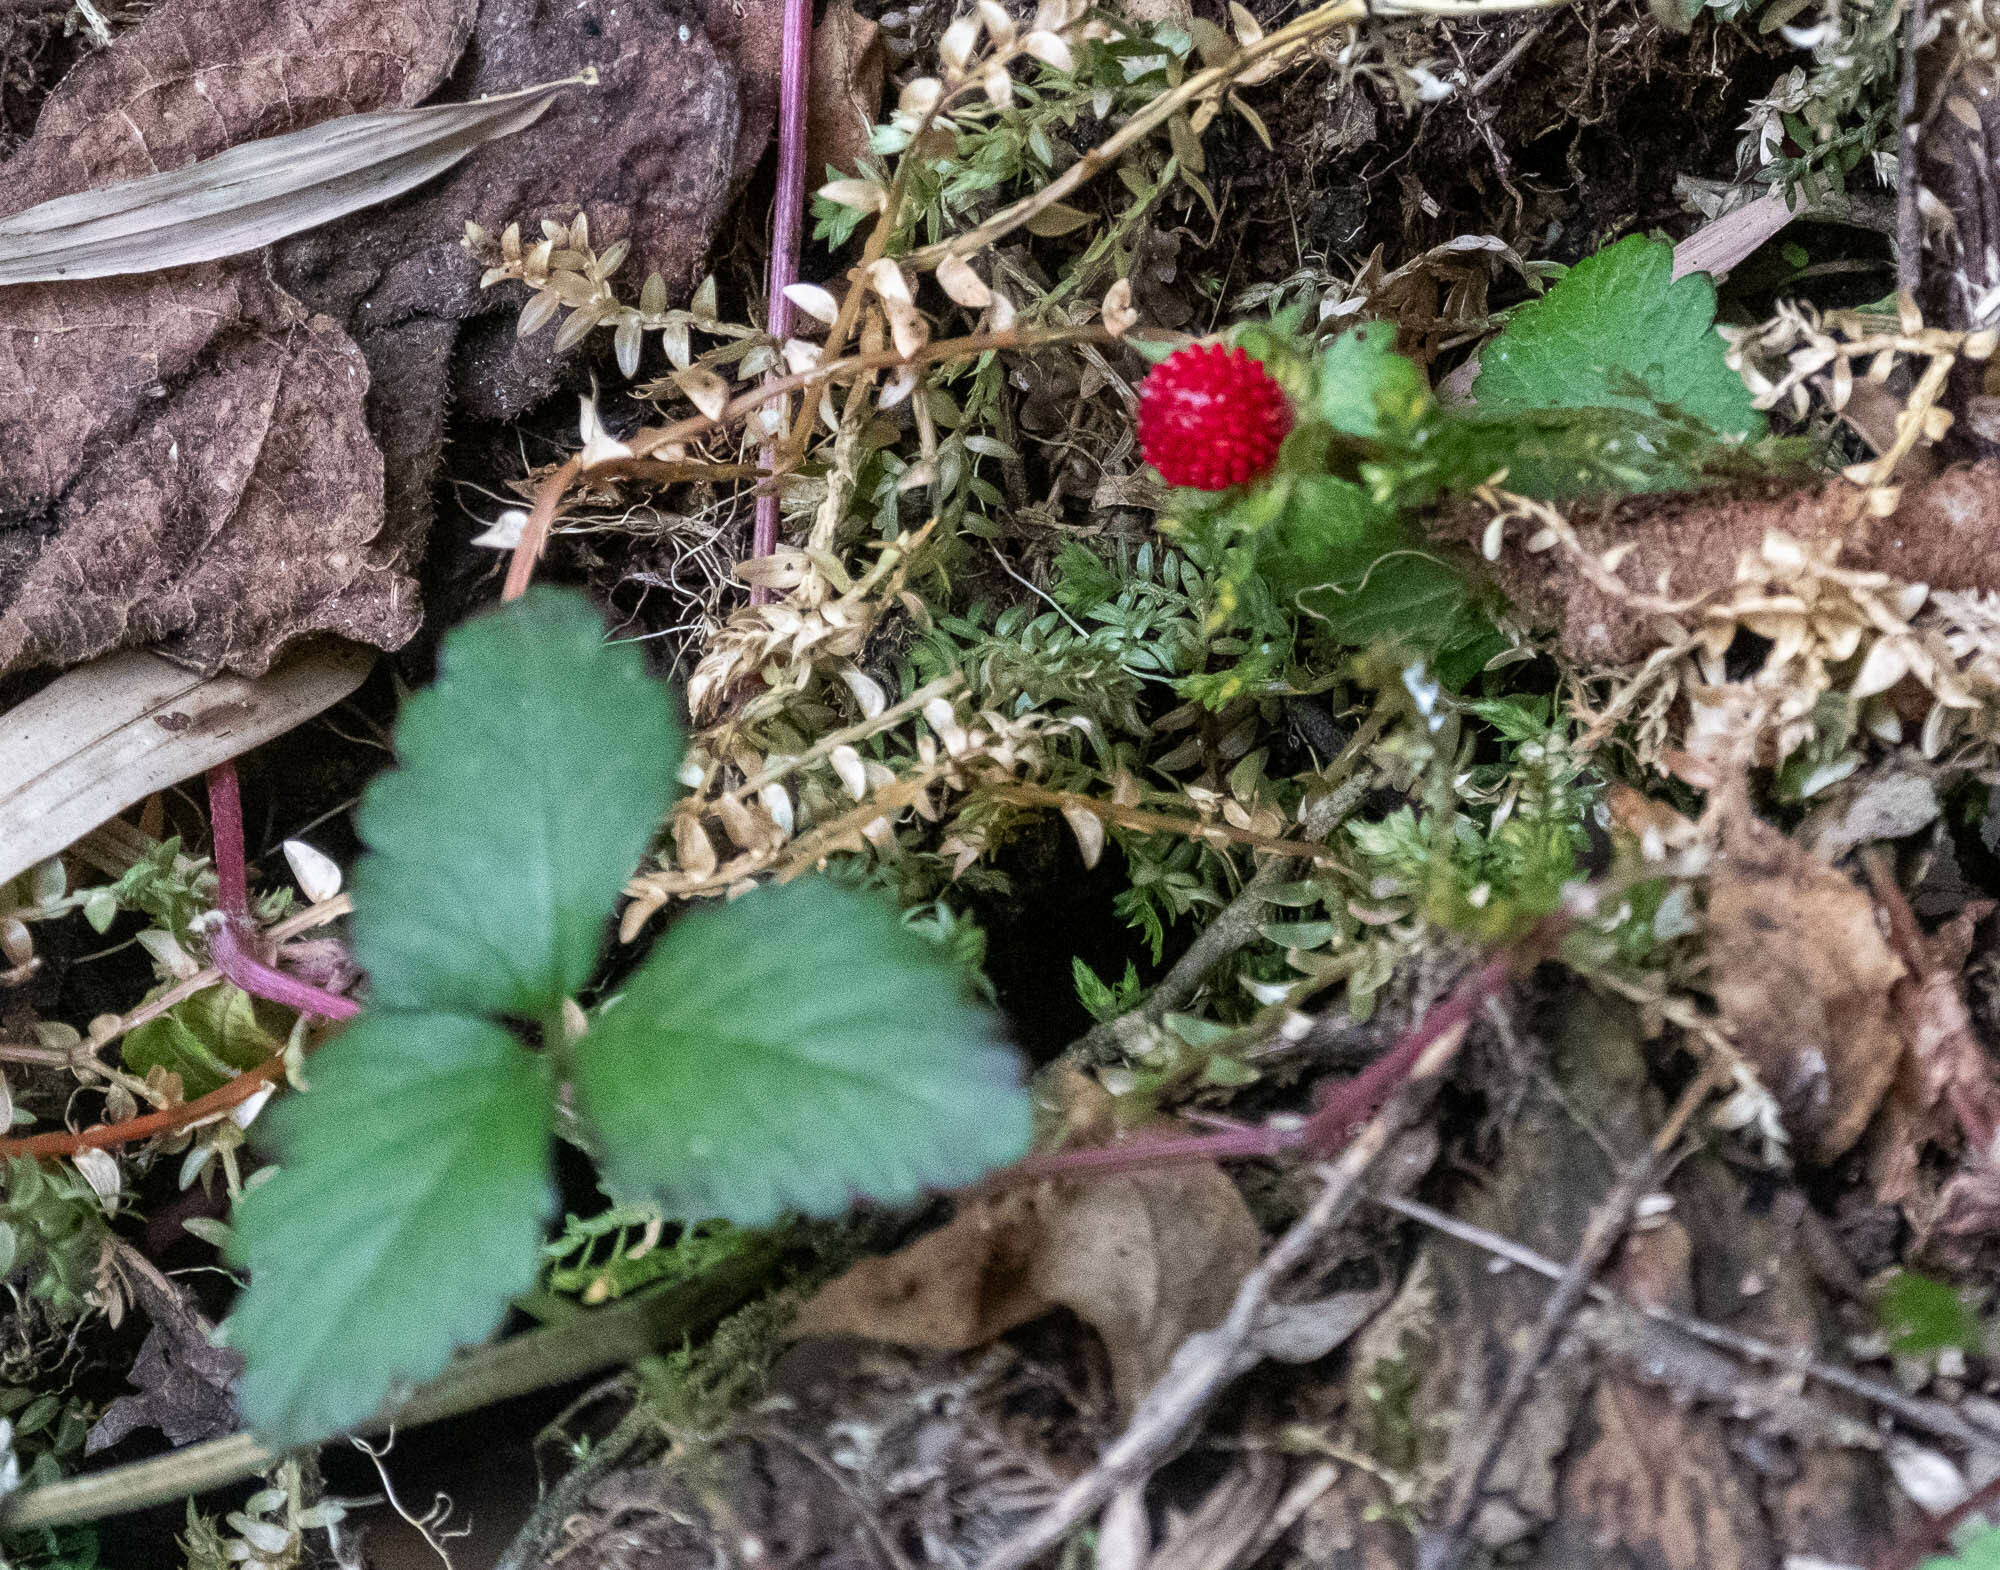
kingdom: Plantae
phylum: Tracheophyta
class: Magnoliopsida
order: Rosales
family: Rosaceae
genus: Potentilla
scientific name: Potentilla indica
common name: Yellow-flowered strawberry
